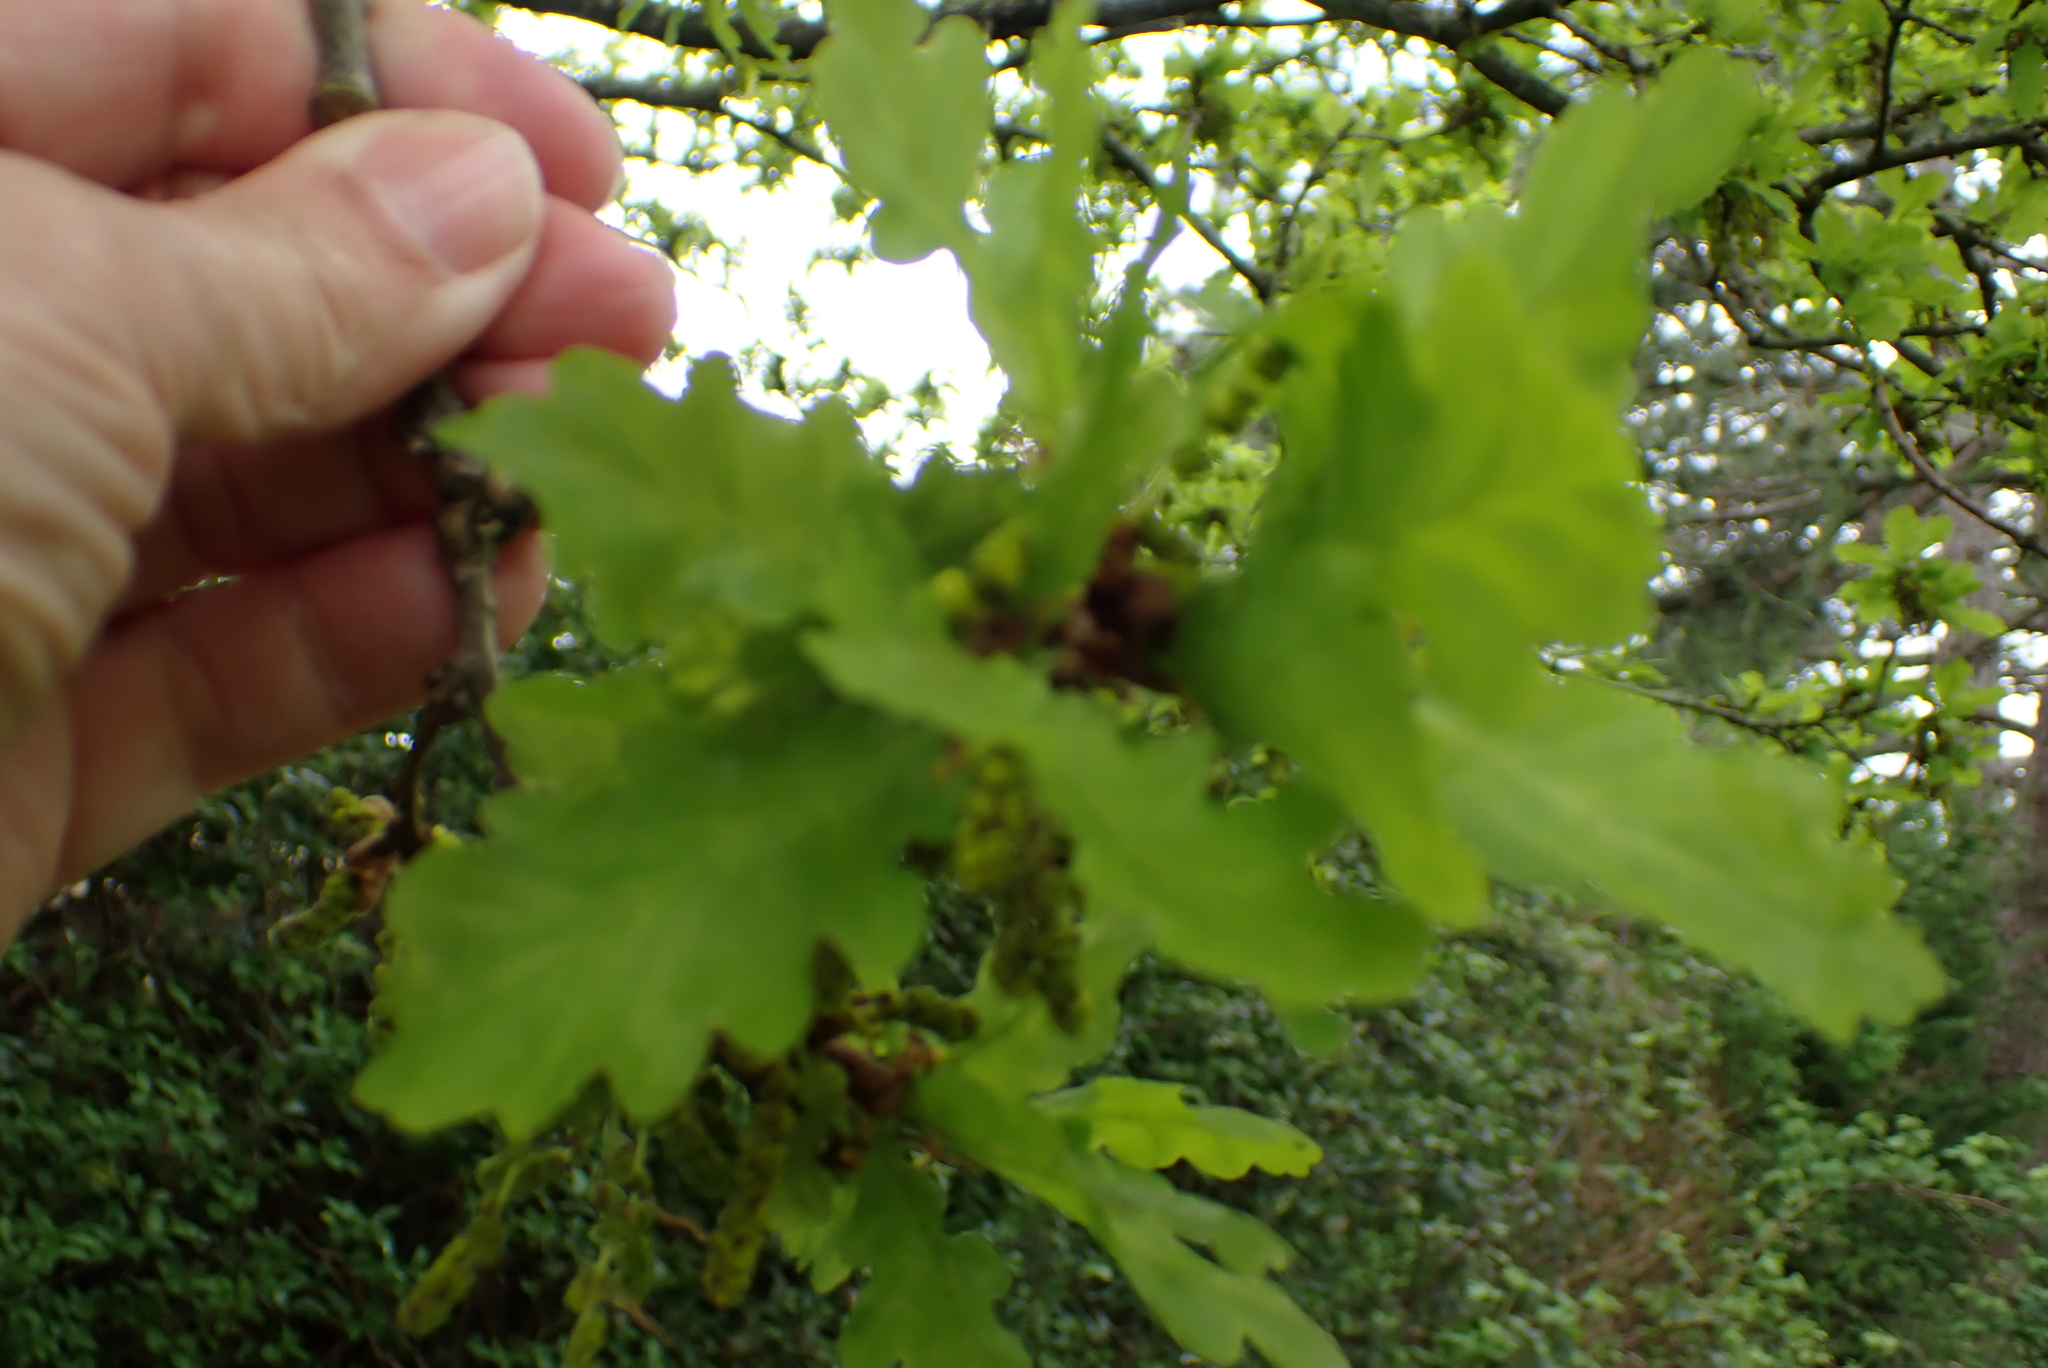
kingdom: Plantae
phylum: Tracheophyta
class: Magnoliopsida
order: Fagales
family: Fagaceae
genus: Quercus
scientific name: Quercus robur
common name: Pedunculate oak
